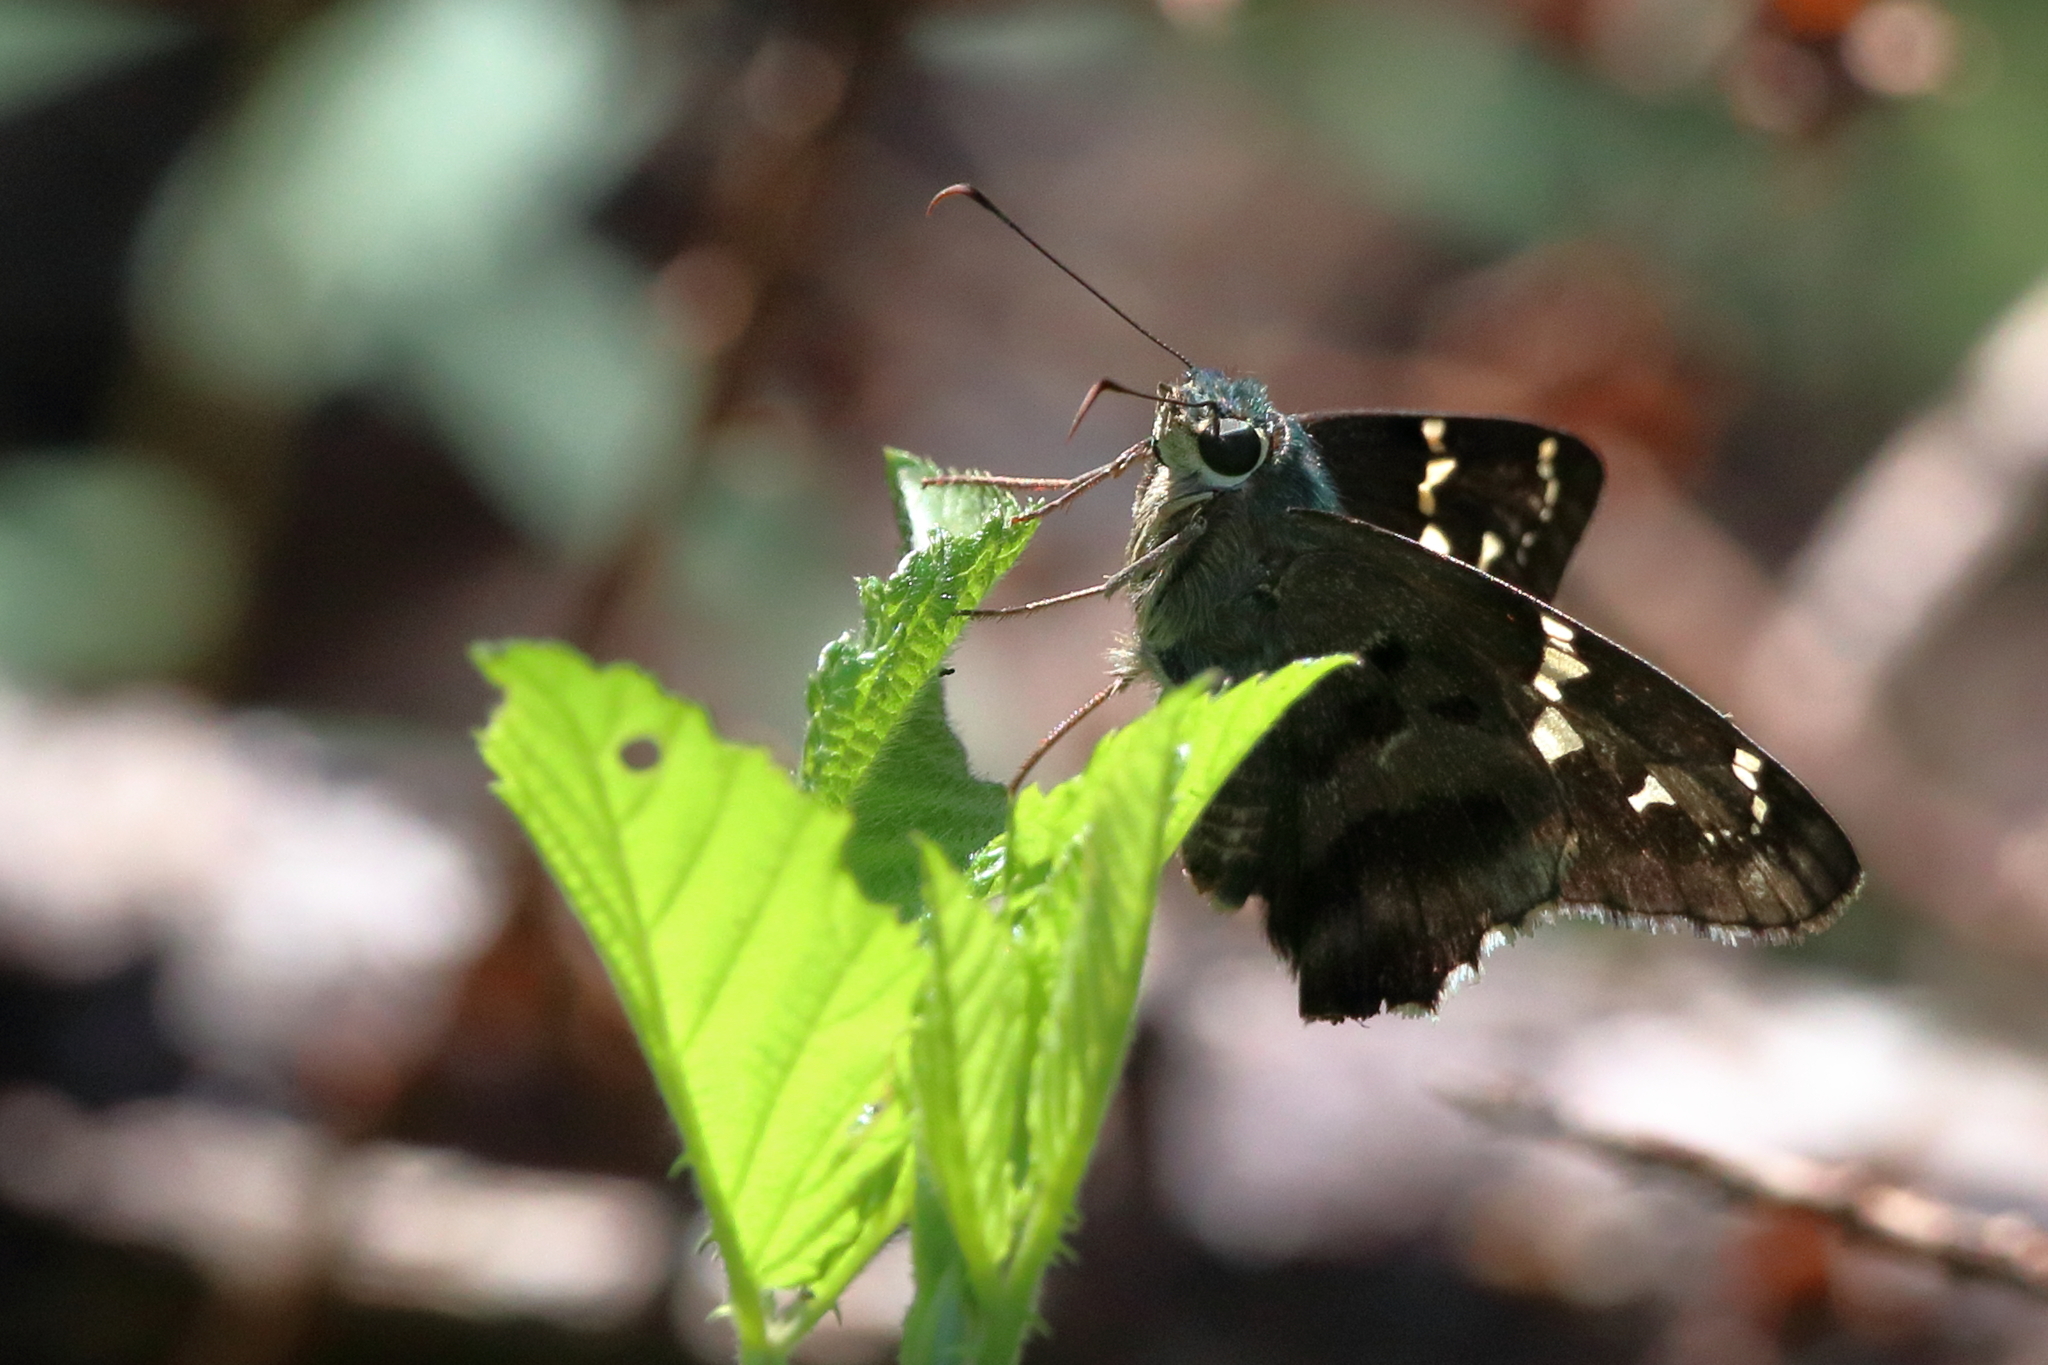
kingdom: Animalia
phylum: Arthropoda
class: Insecta
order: Lepidoptera
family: Hesperiidae
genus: Urbanus
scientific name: Urbanus proteus
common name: Long-tailed skipper
